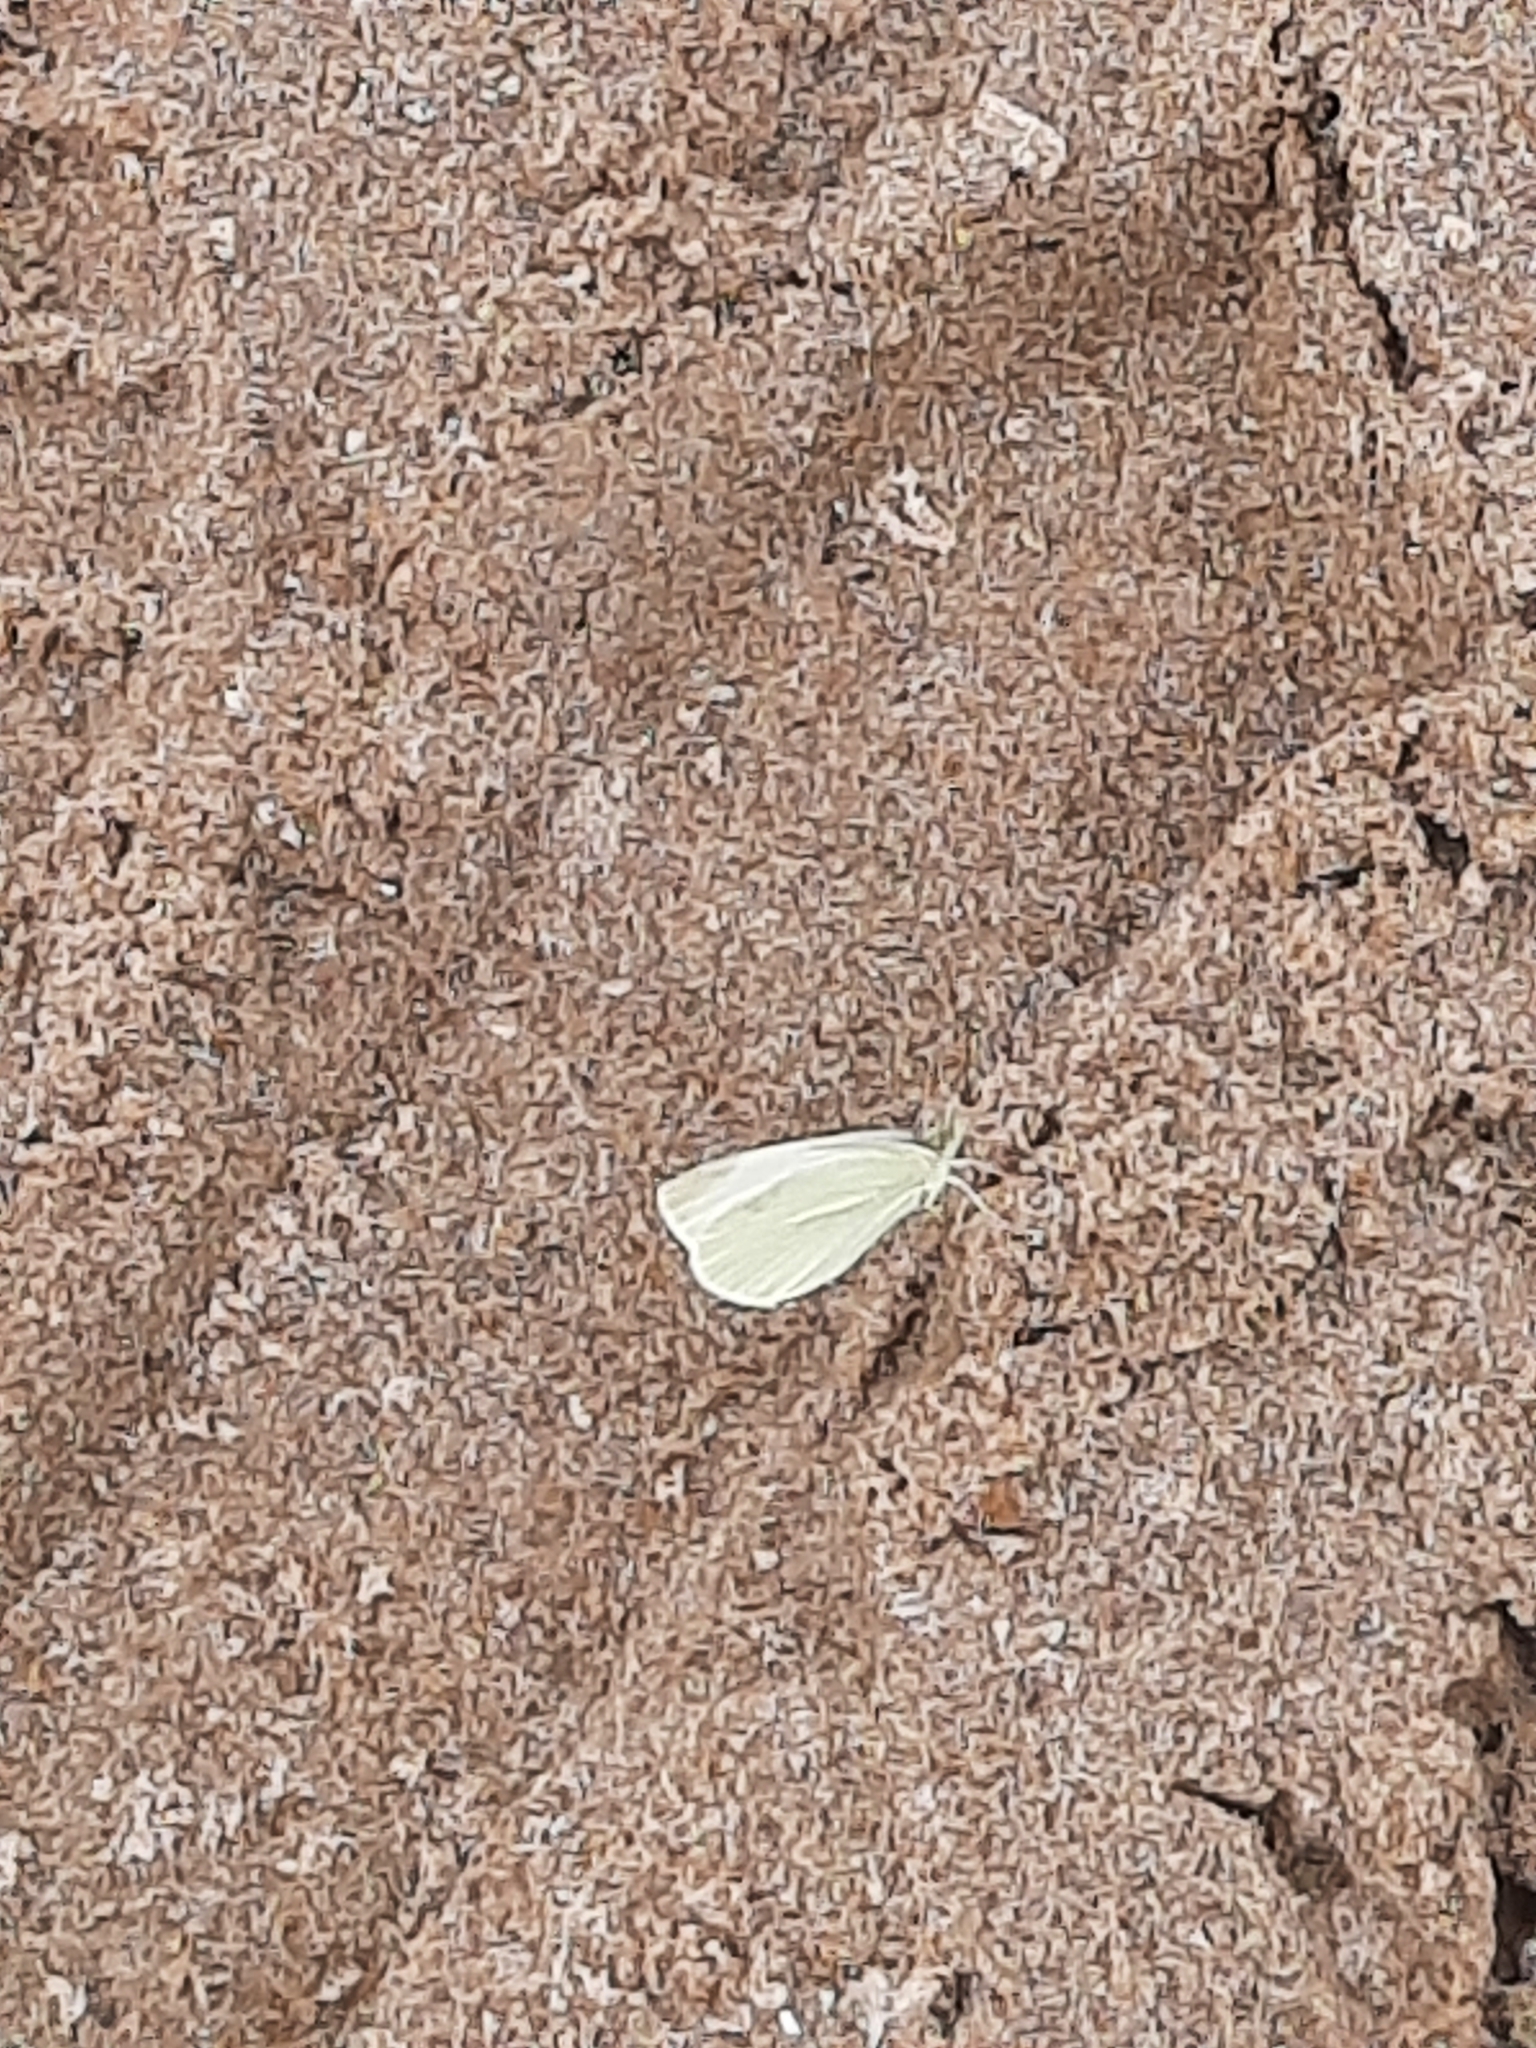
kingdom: Animalia
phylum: Arthropoda
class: Insecta
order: Lepidoptera
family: Pieridae
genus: Pieris
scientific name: Pieris rapae
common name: Small white
